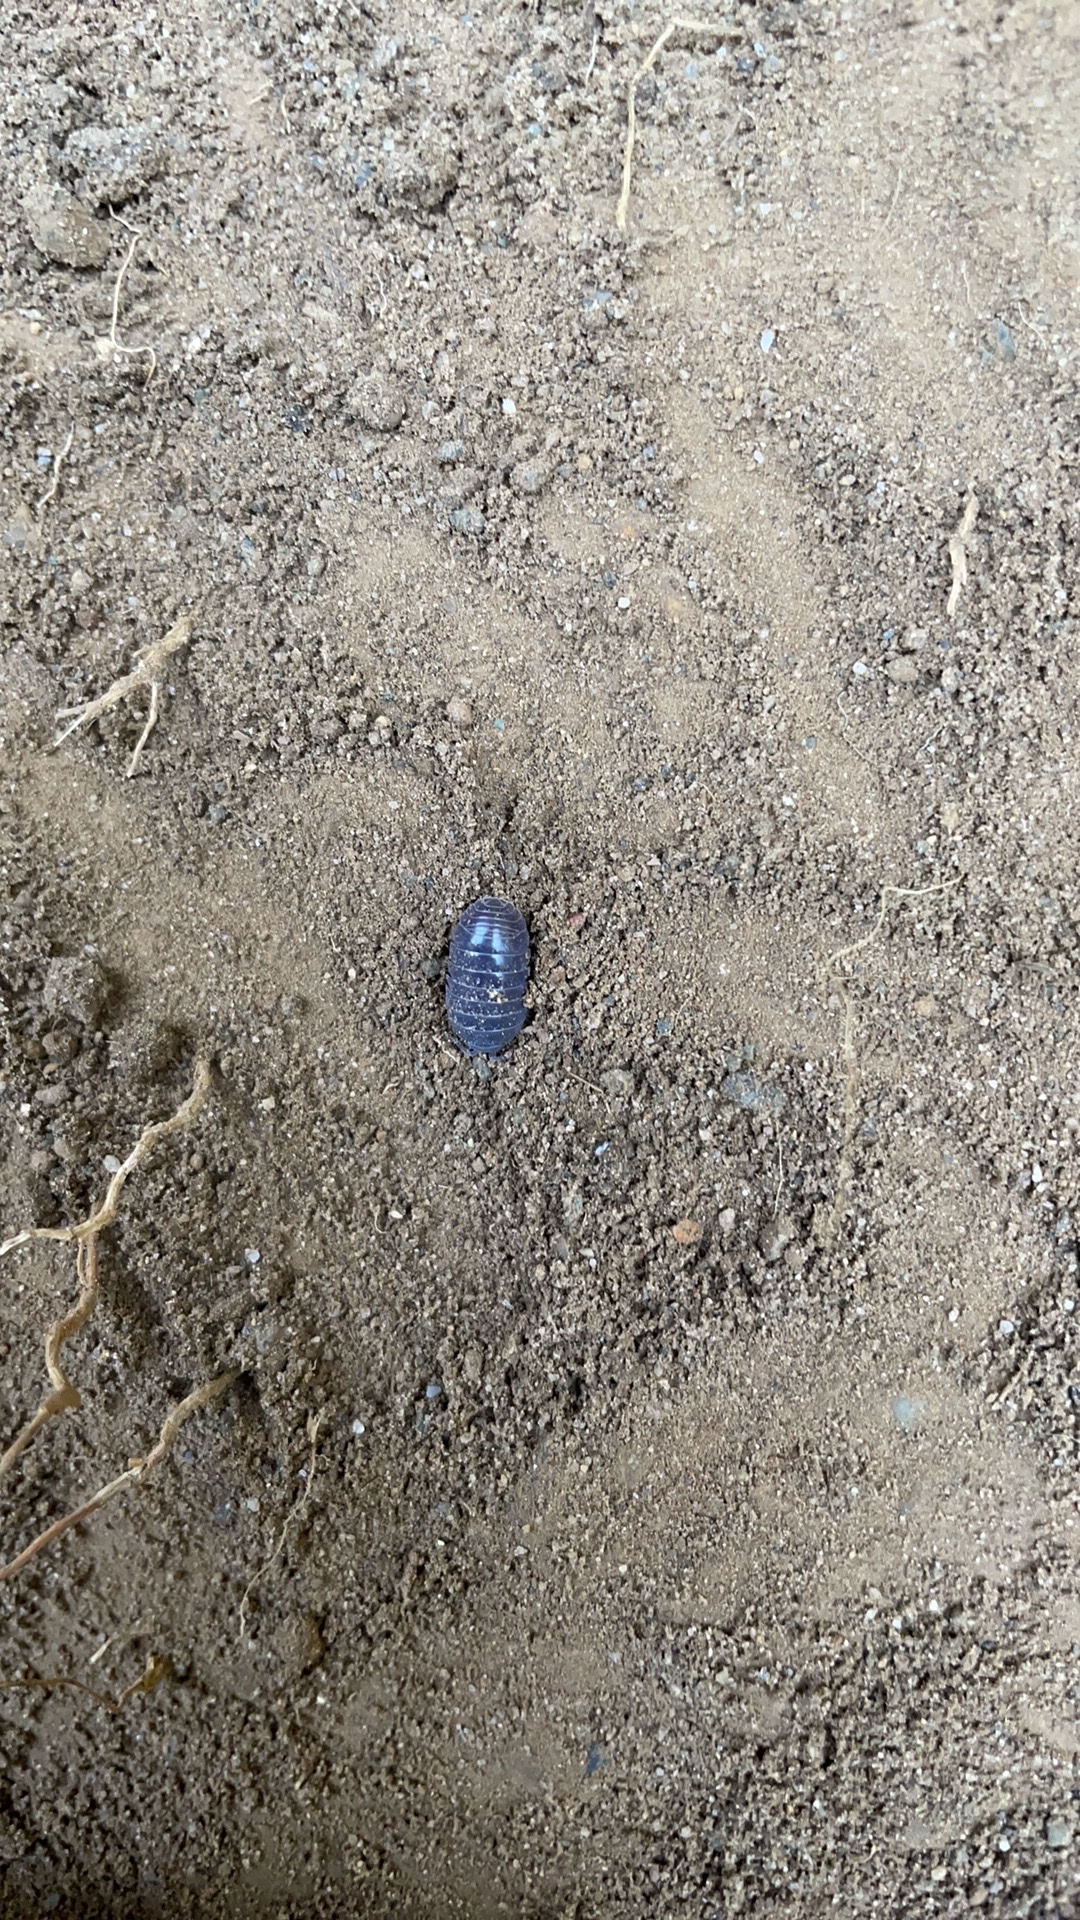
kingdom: Animalia
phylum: Arthropoda
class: Malacostraca
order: Isopoda
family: Armadillidiidae
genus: Armadillidium
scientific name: Armadillidium vulgare
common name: Common pill woodlouse
